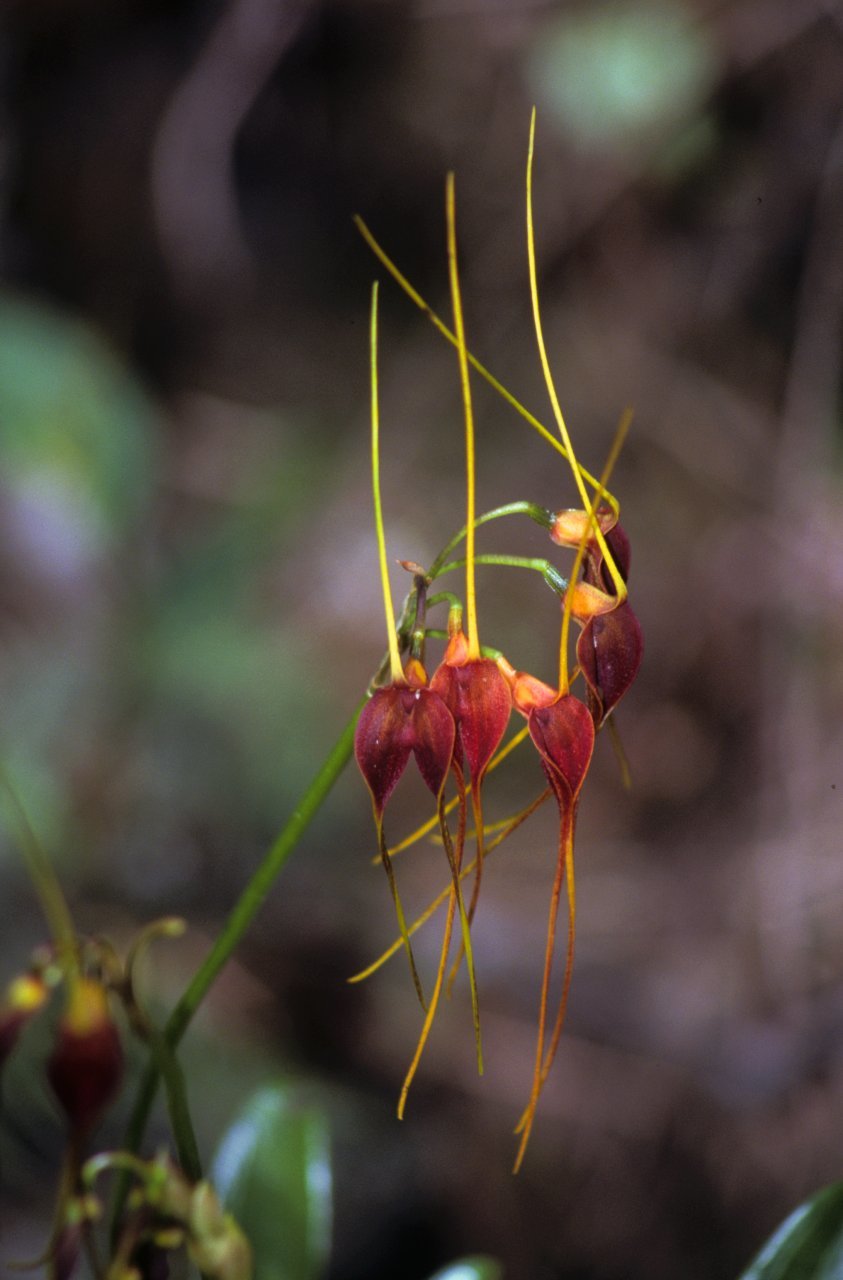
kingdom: Plantae
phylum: Tracheophyta
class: Liliopsida
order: Asparagales
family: Orchidaceae
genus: Masdevallia
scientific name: Masdevallia schlimii
